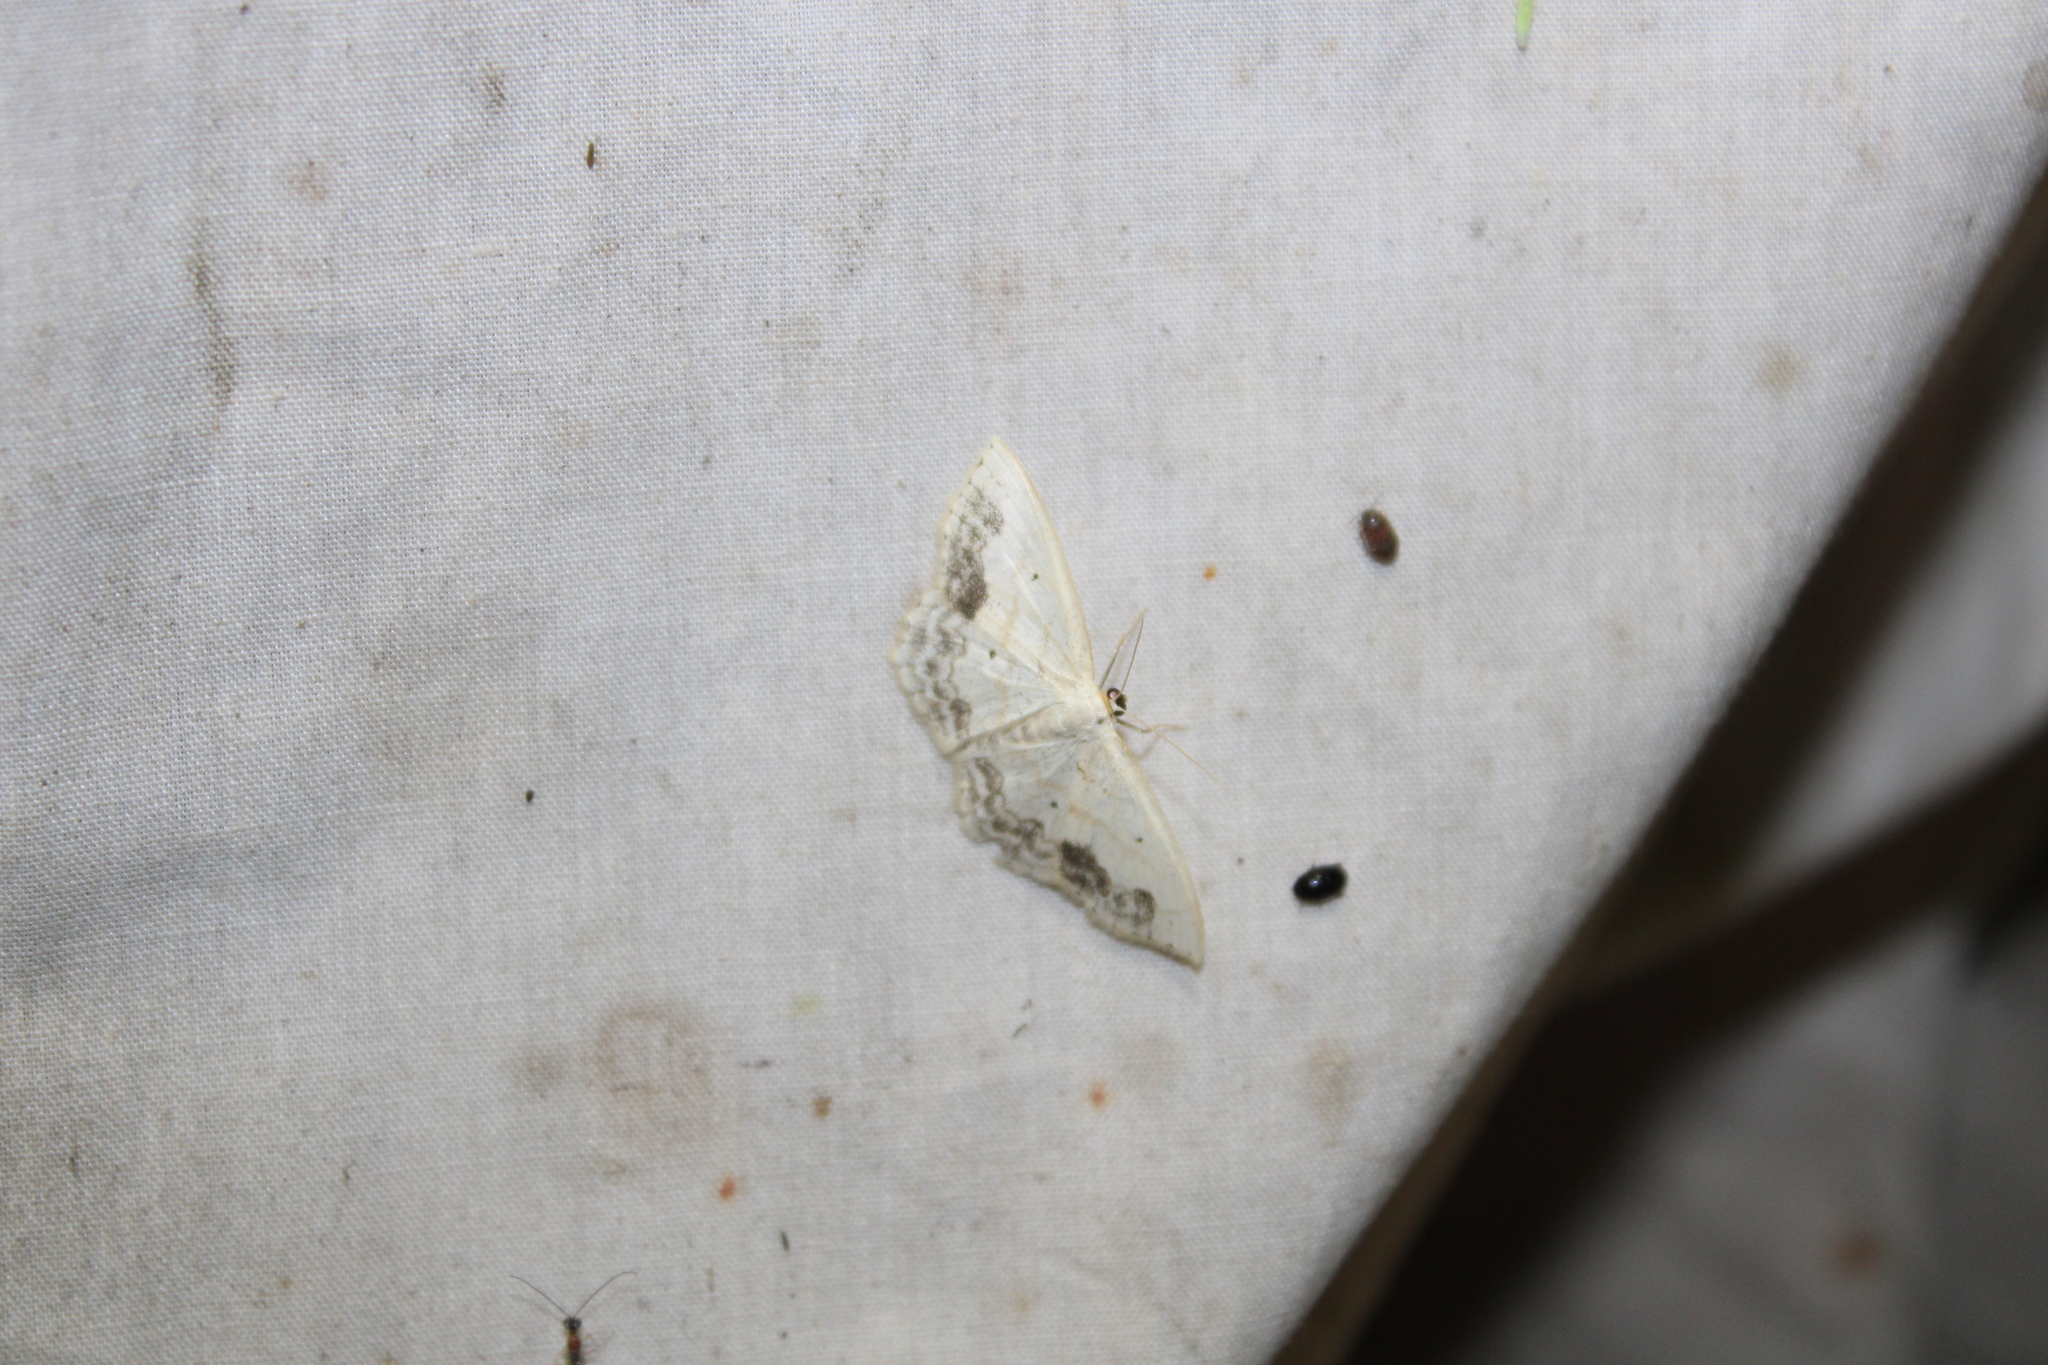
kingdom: Animalia
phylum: Arthropoda
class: Insecta
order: Lepidoptera
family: Geometridae
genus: Scopula
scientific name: Scopula limboundata
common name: Large lace border
